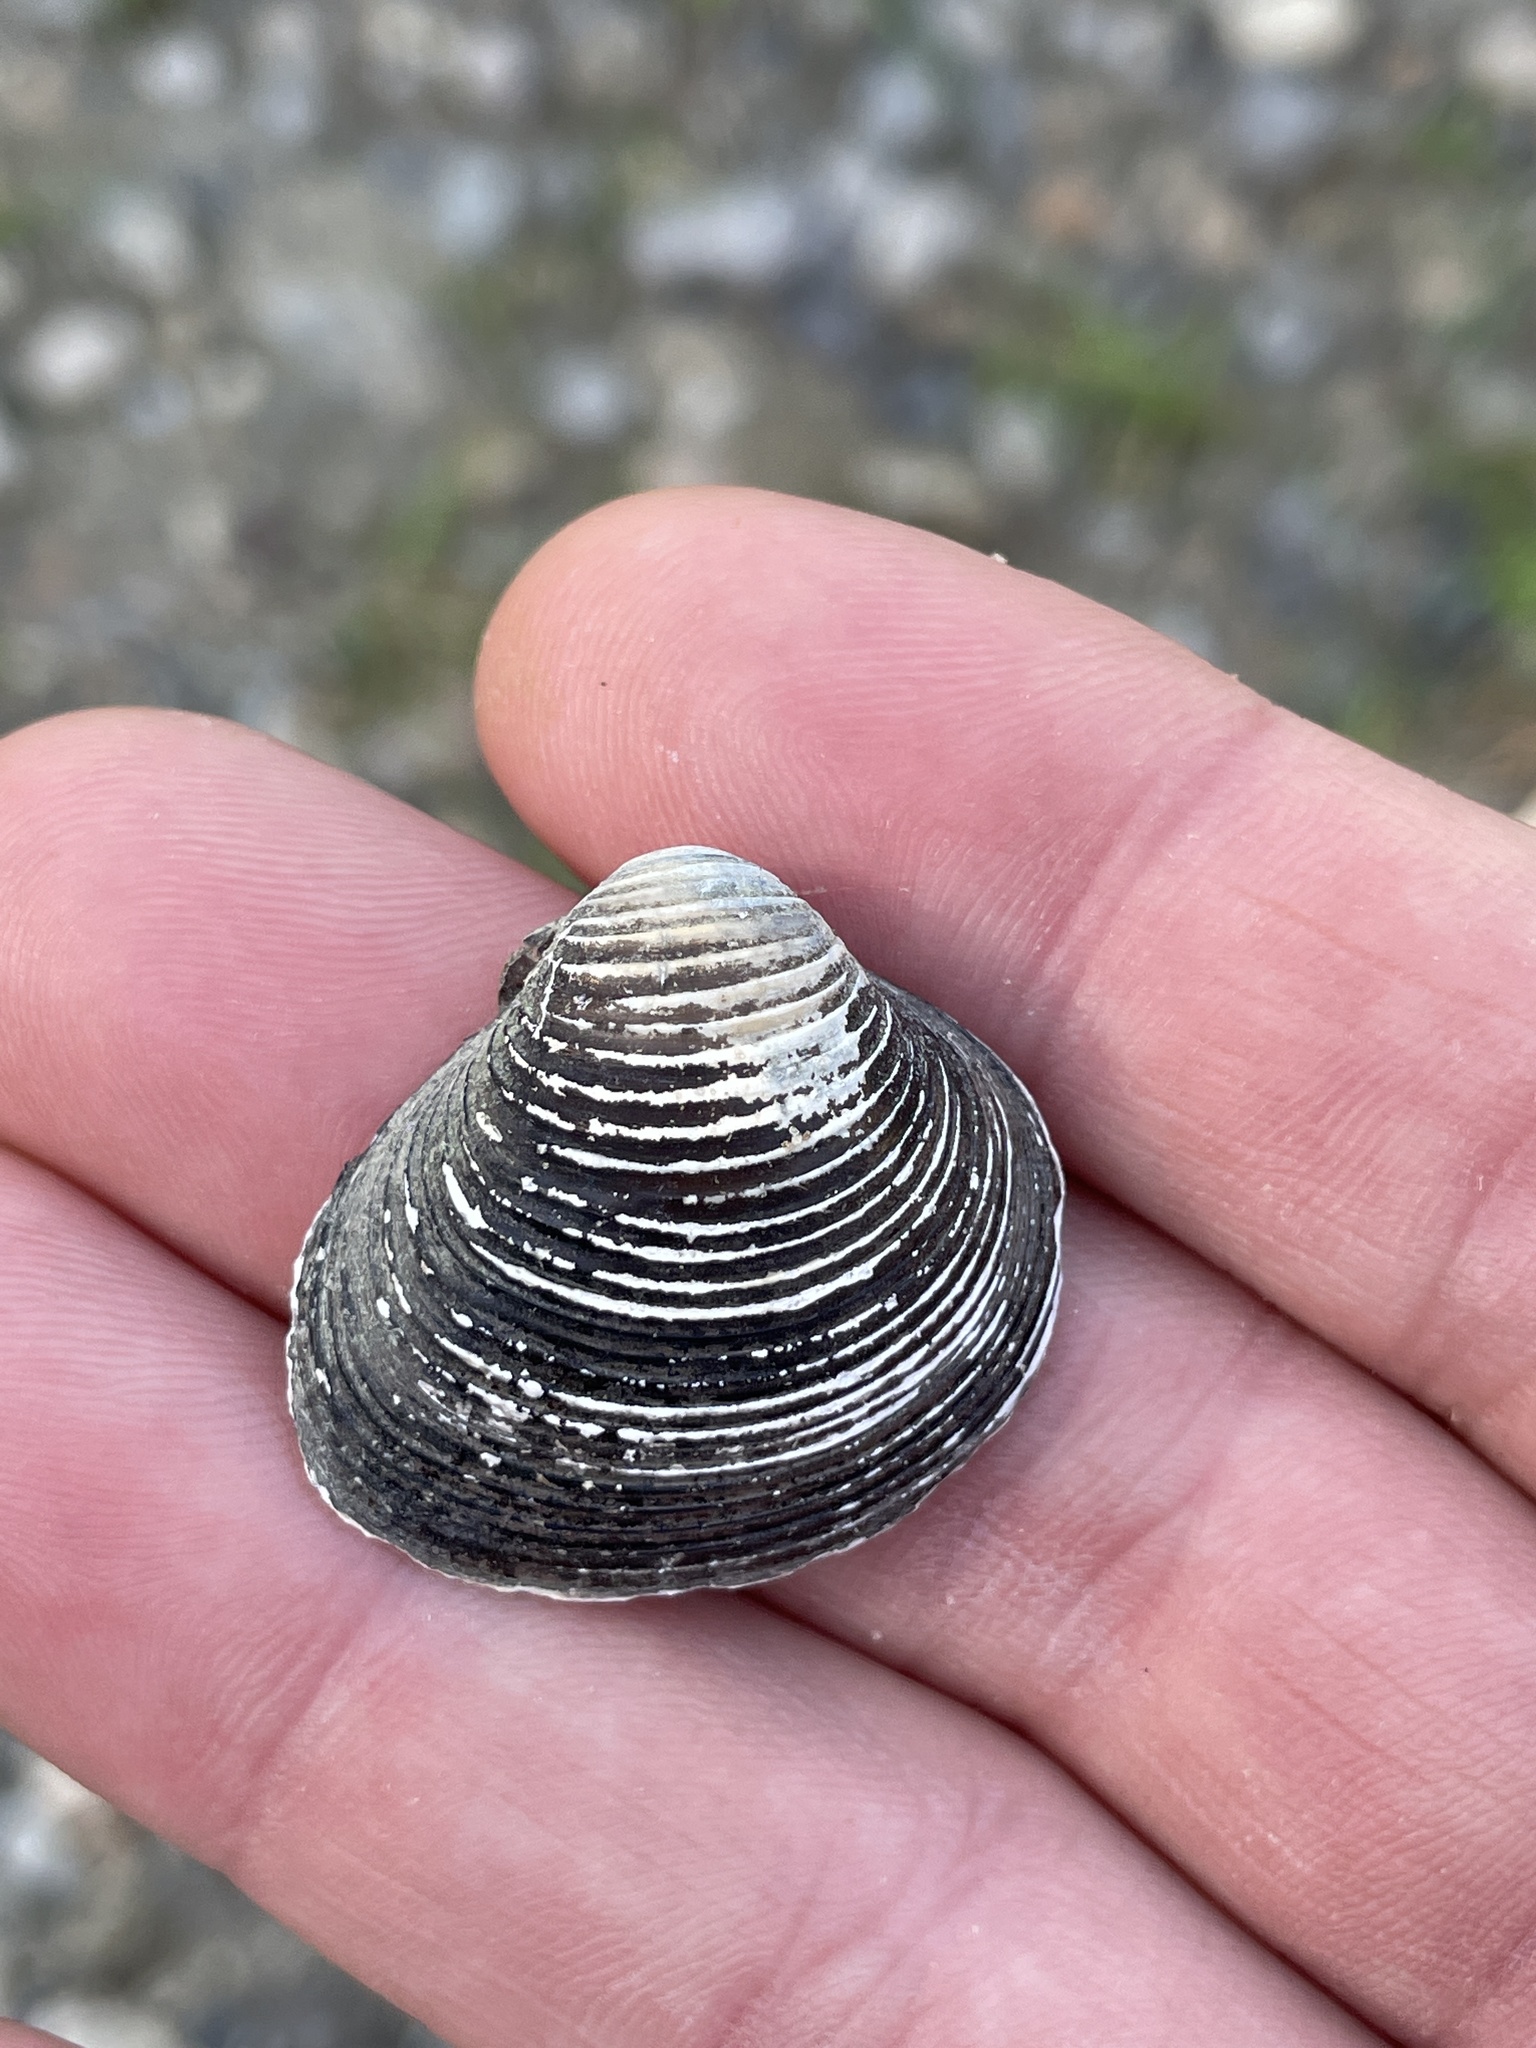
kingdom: Animalia
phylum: Mollusca
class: Bivalvia
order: Venerida
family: Cyrenidae
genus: Corbicula
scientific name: Corbicula fluminea
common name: Asian clam
